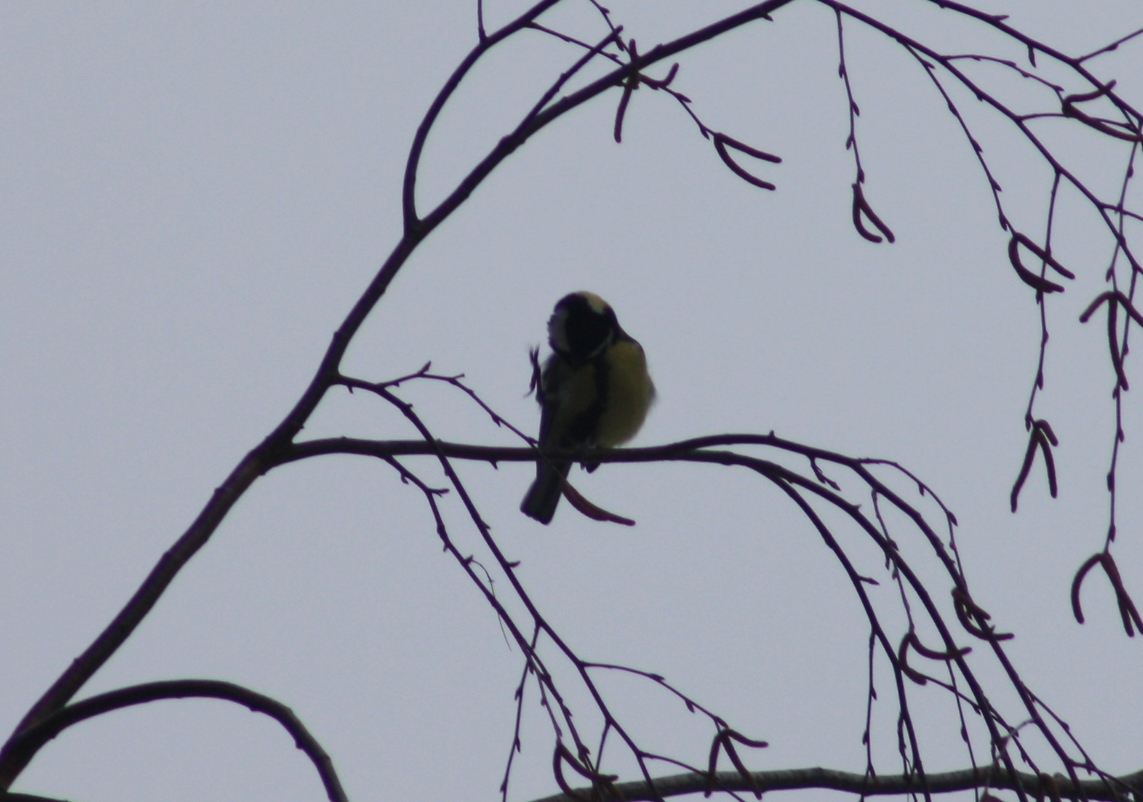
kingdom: Animalia
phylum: Chordata
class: Aves
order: Passeriformes
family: Paridae
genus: Parus
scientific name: Parus major
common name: Great tit
